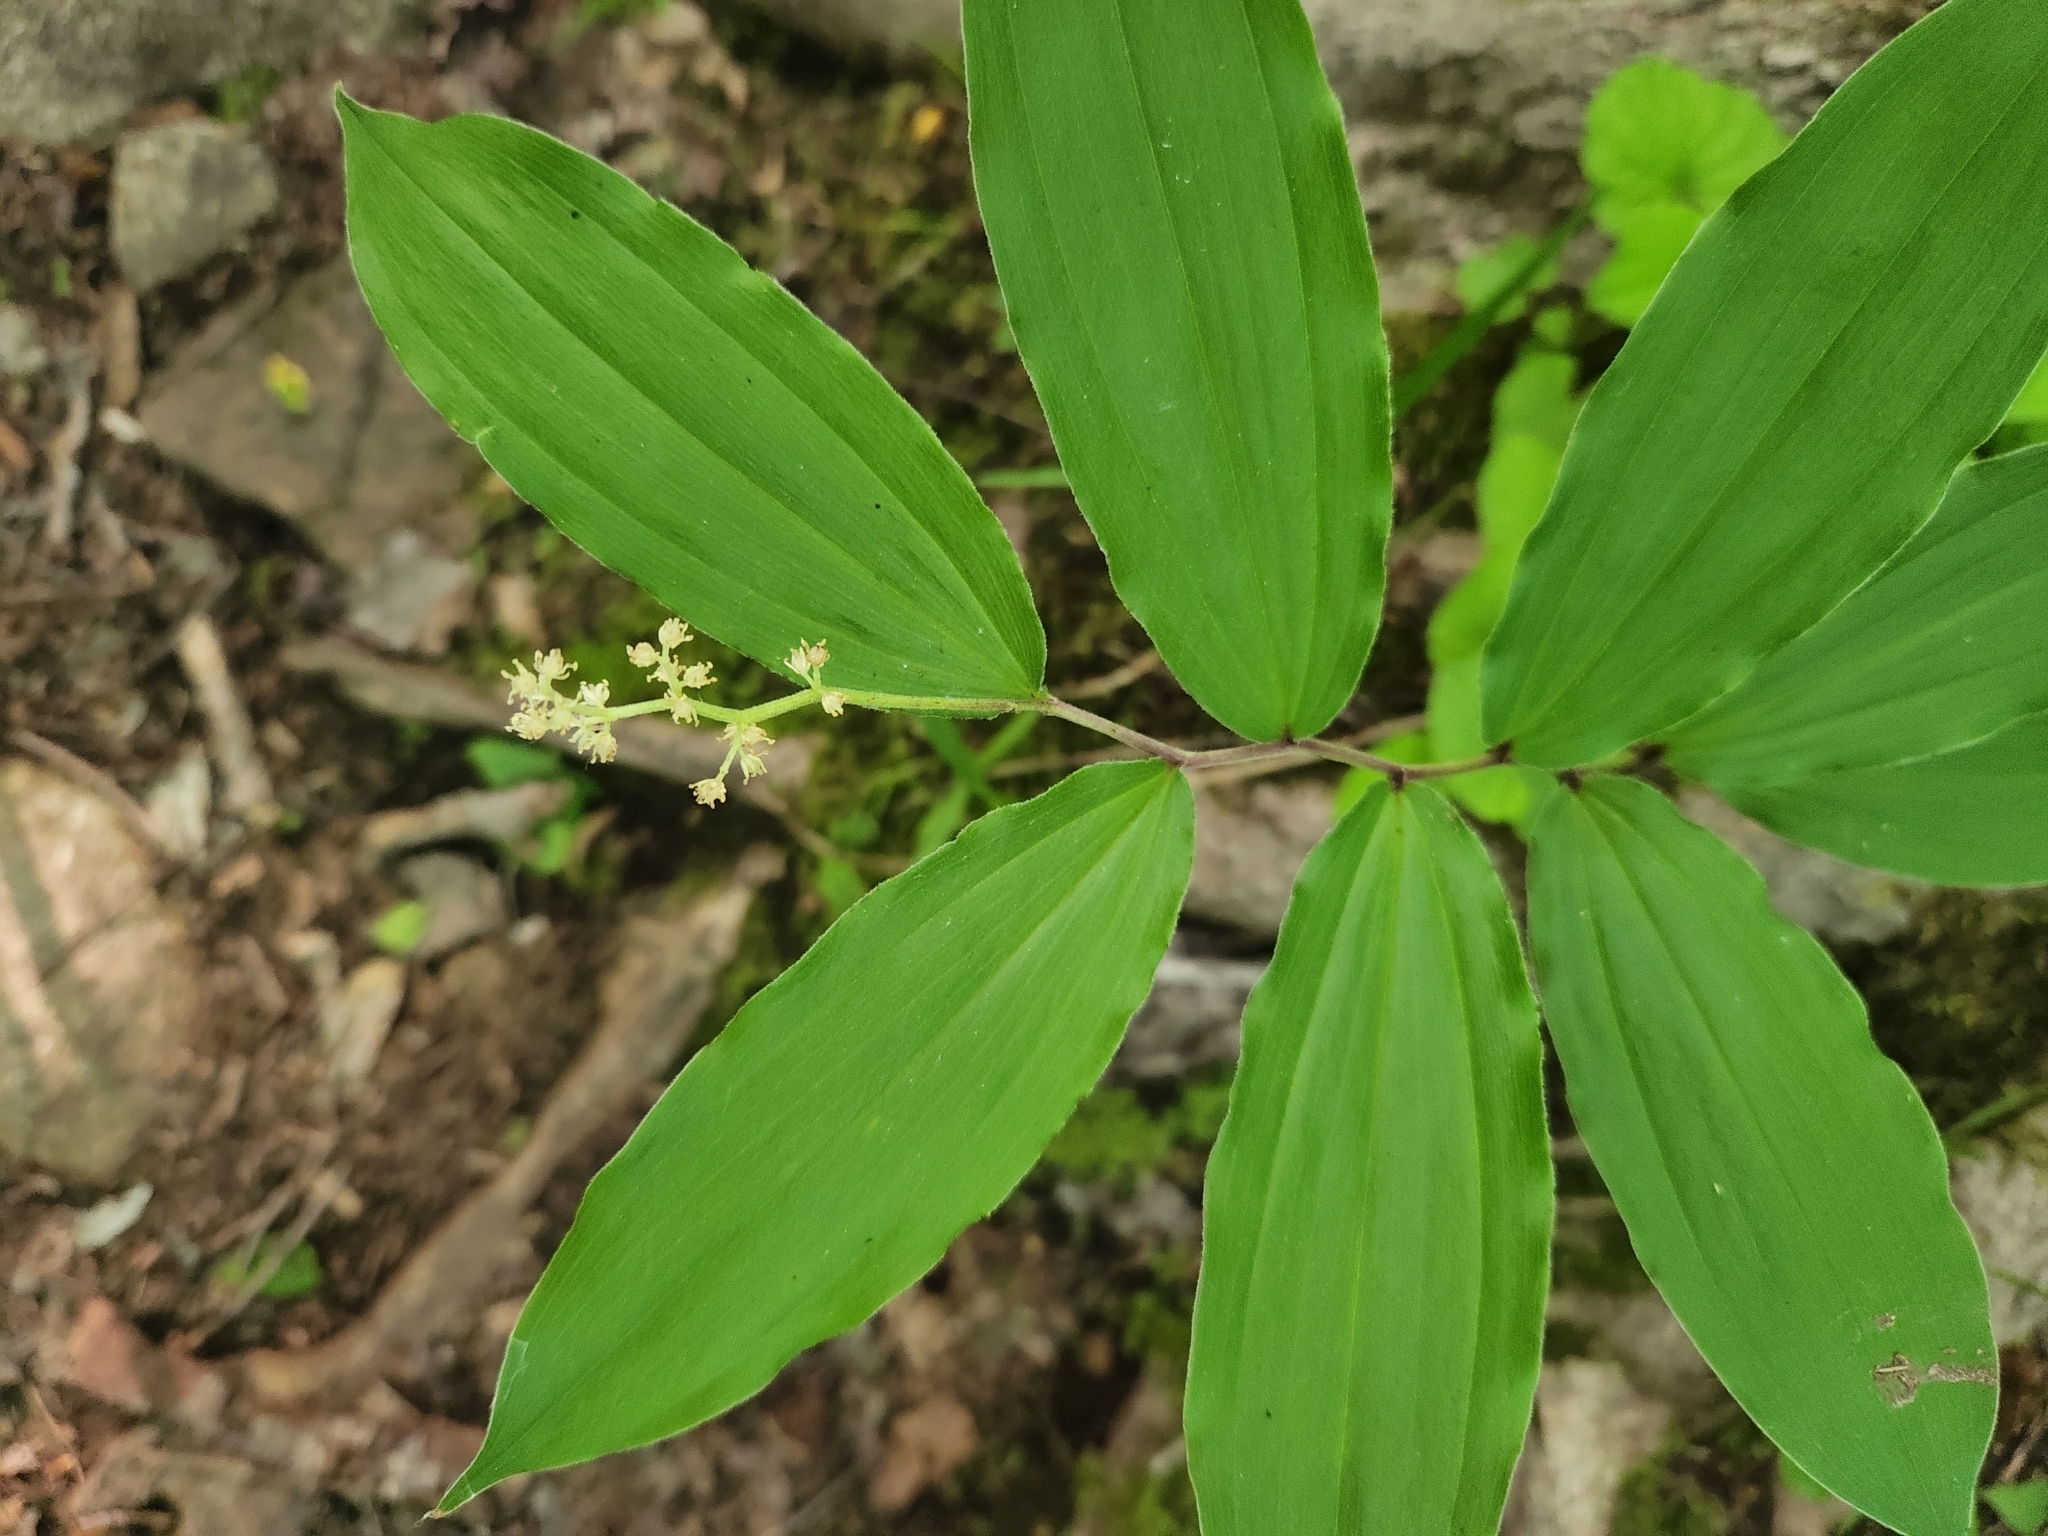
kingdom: Plantae
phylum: Tracheophyta
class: Liliopsida
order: Asparagales
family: Asparagaceae
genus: Maianthemum
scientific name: Maianthemum racemosum
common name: False spikenard
